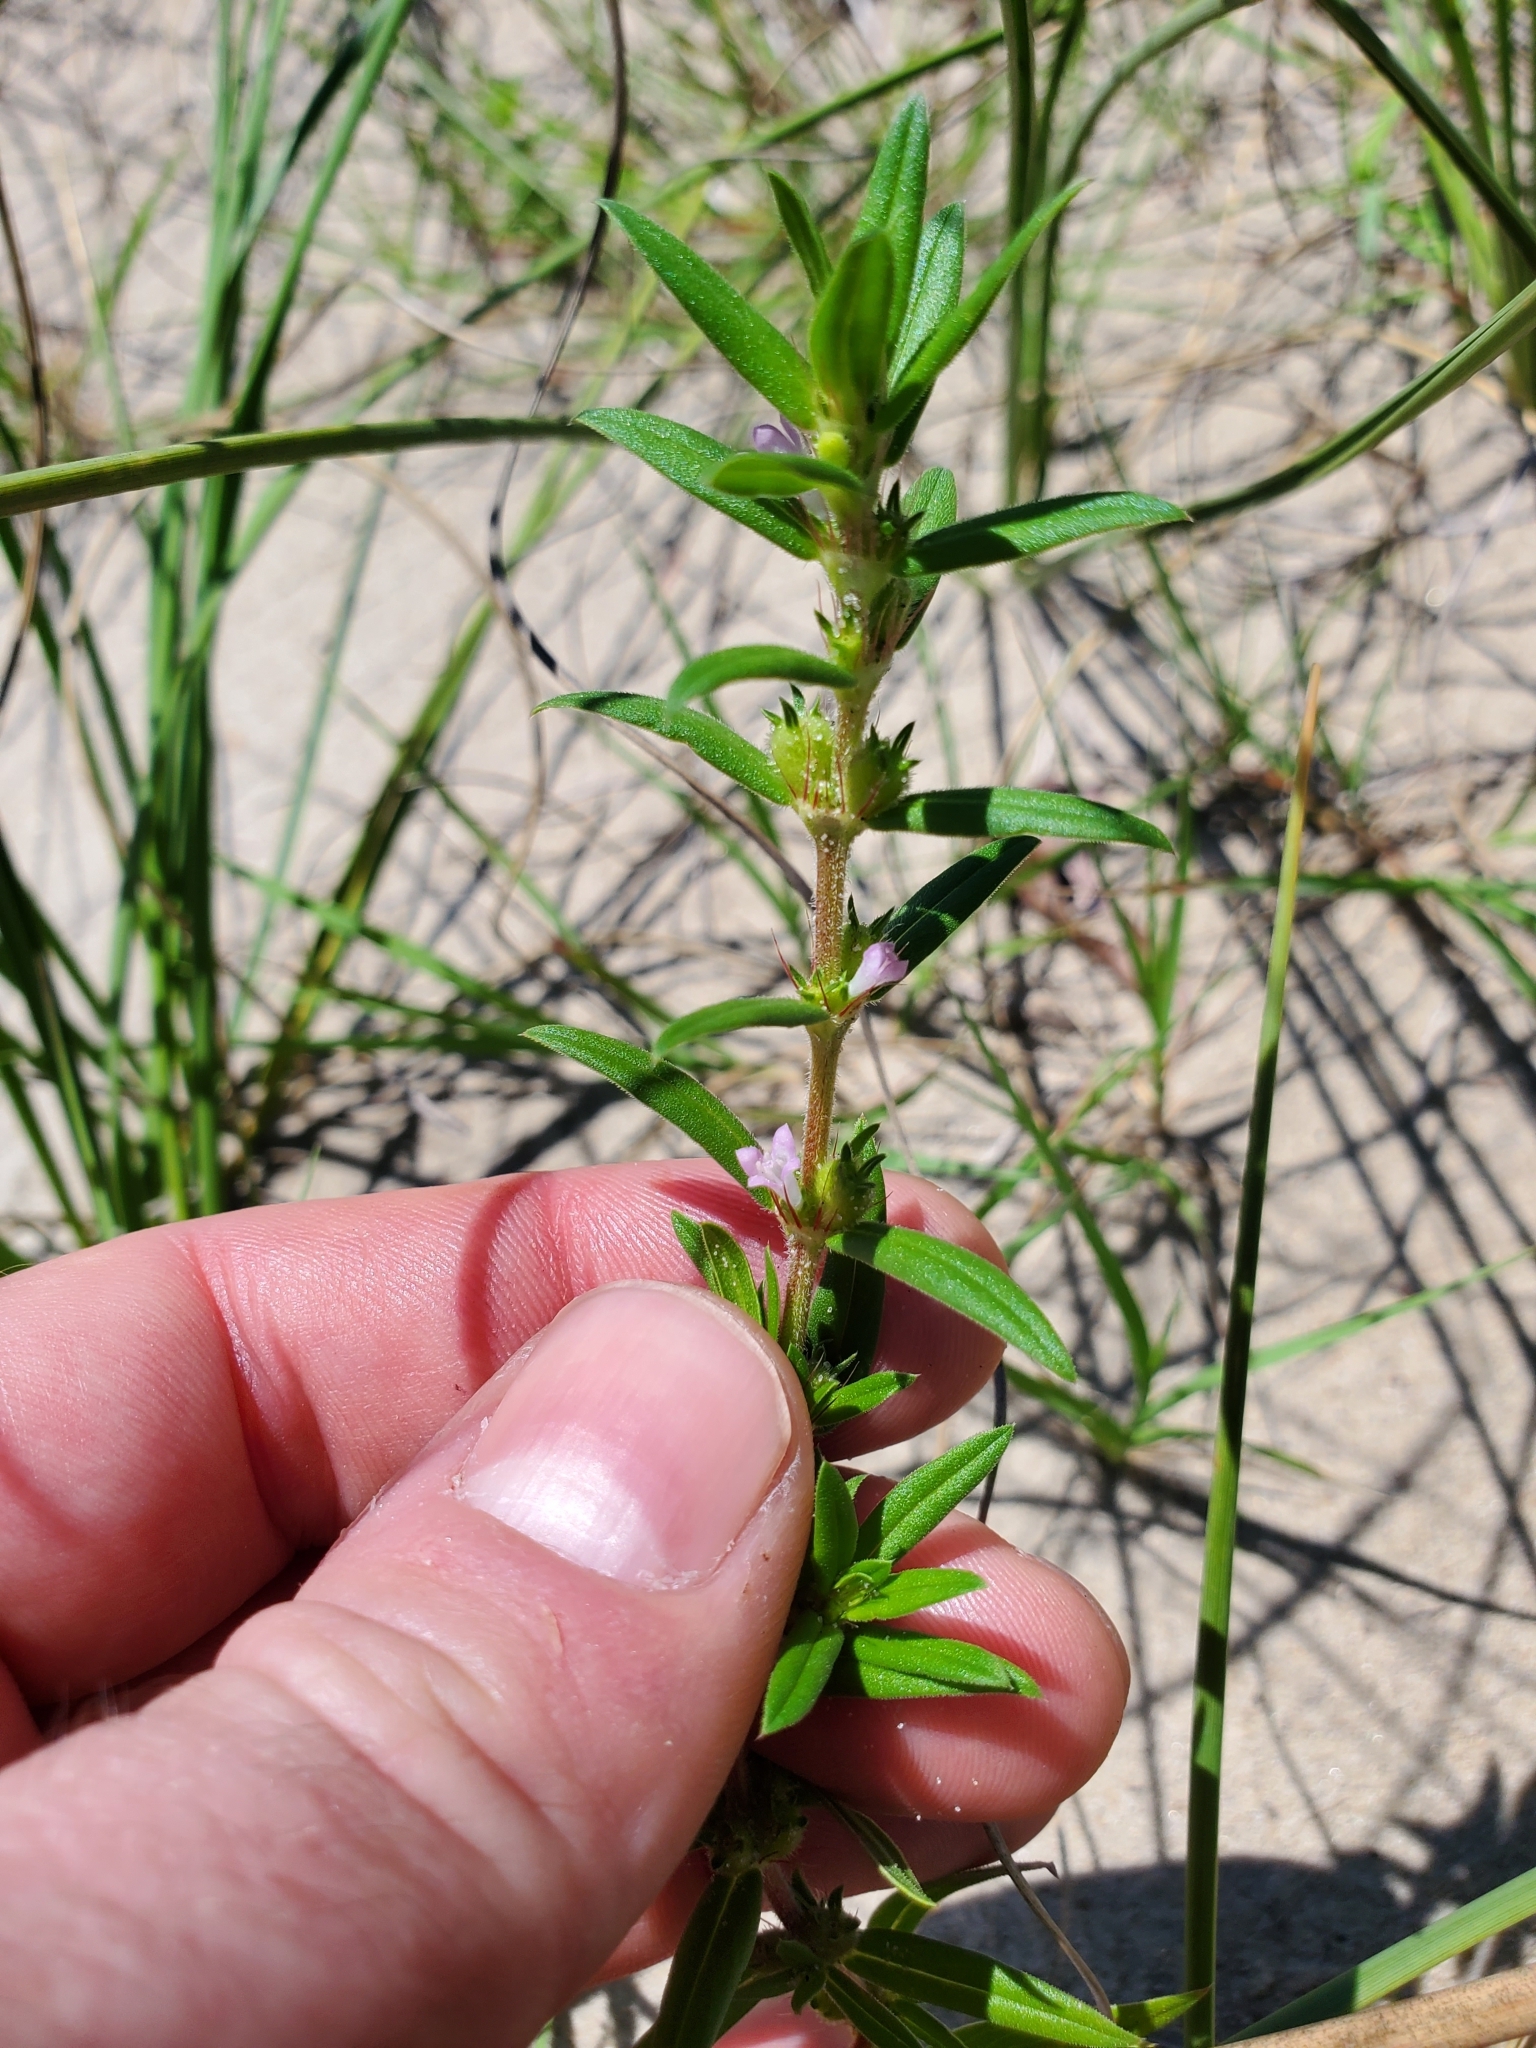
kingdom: Plantae
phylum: Tracheophyta
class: Magnoliopsida
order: Gentianales
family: Rubiaceae
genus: Hexasepalum
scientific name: Hexasepalum teres
